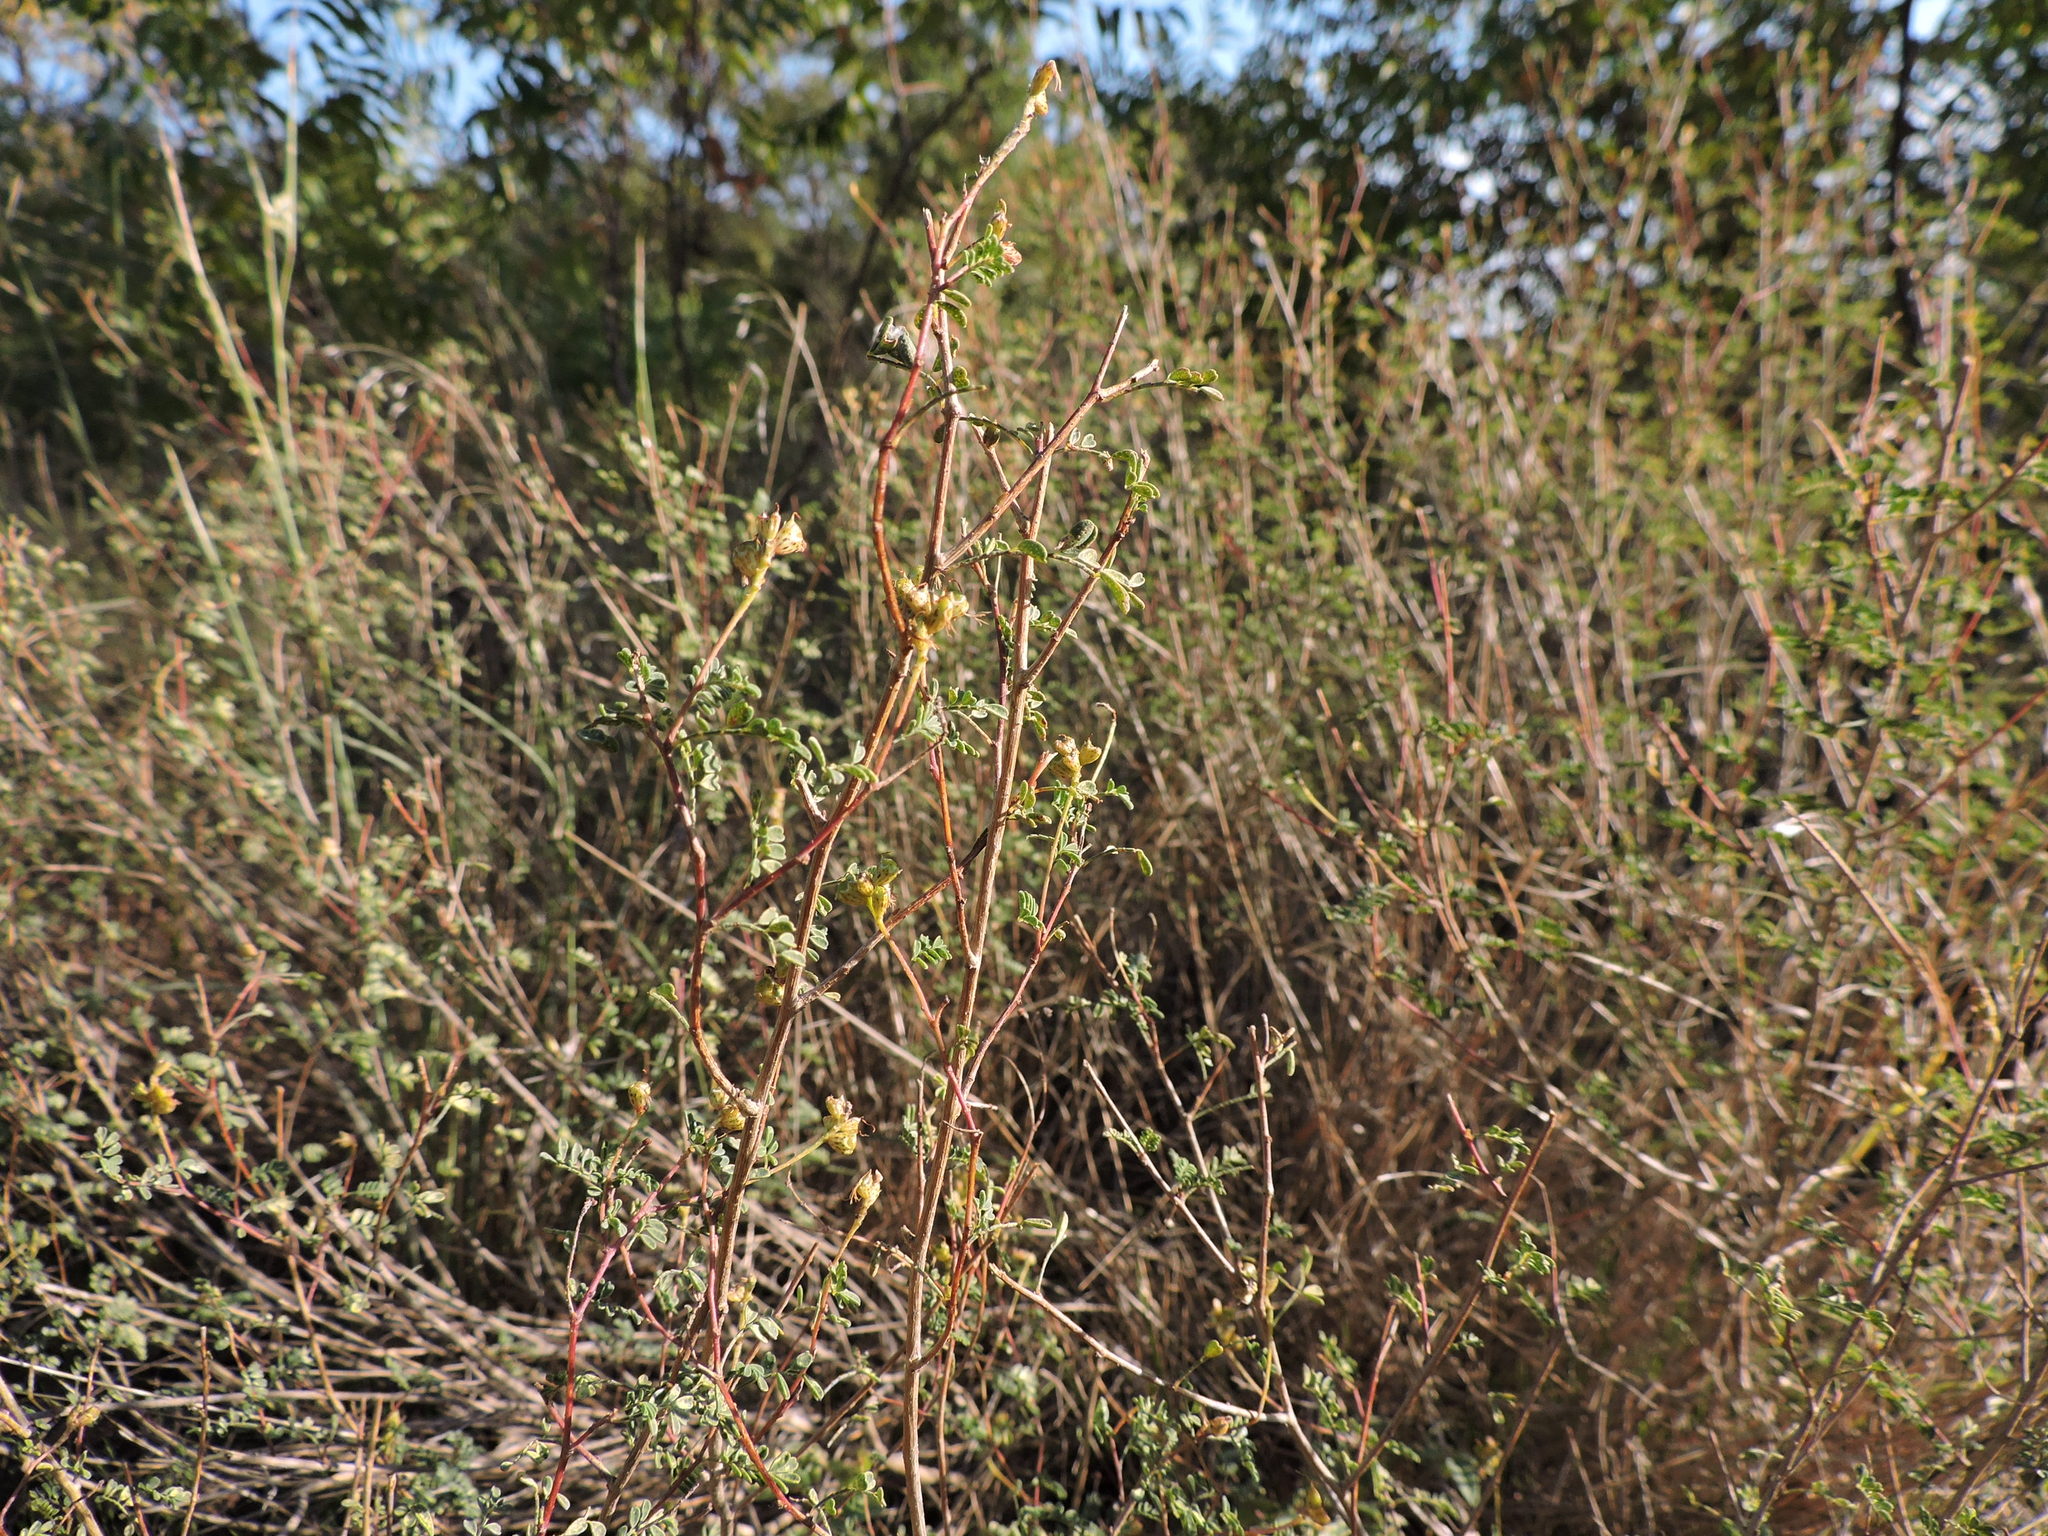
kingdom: Plantae
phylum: Tracheophyta
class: Magnoliopsida
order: Fabales
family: Fabaceae
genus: Dalea
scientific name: Dalea frutescens
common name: Black dalea
